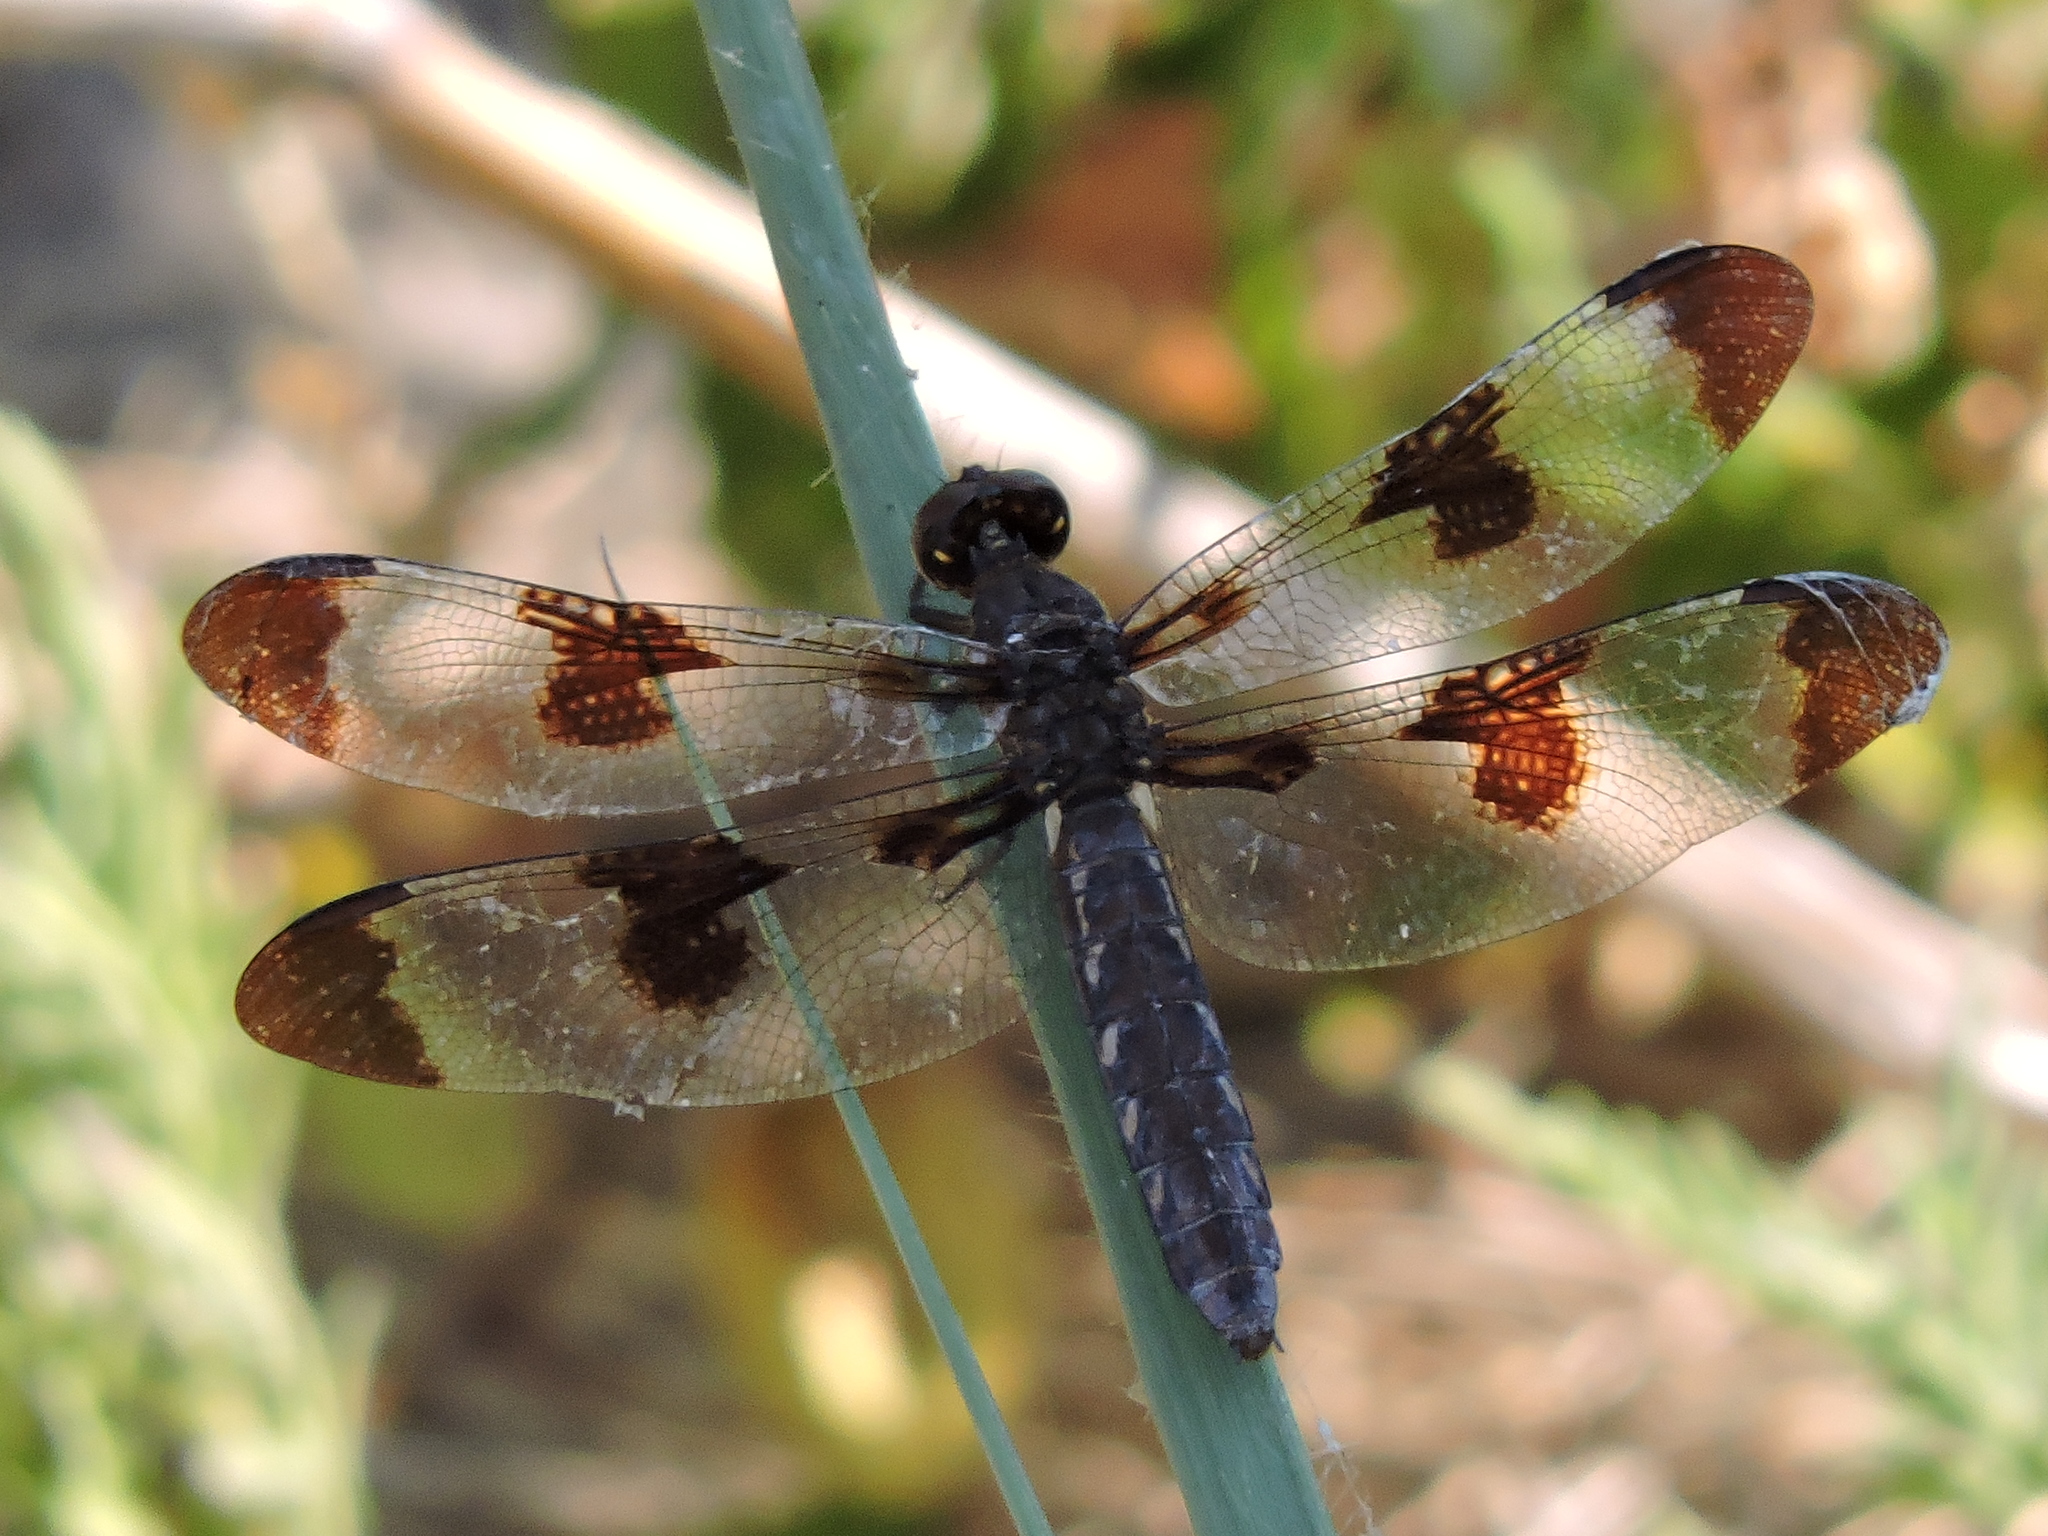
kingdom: Animalia
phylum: Arthropoda
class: Insecta
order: Odonata
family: Libellulidae
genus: Plathemis
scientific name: Plathemis lydia
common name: Common whitetail
